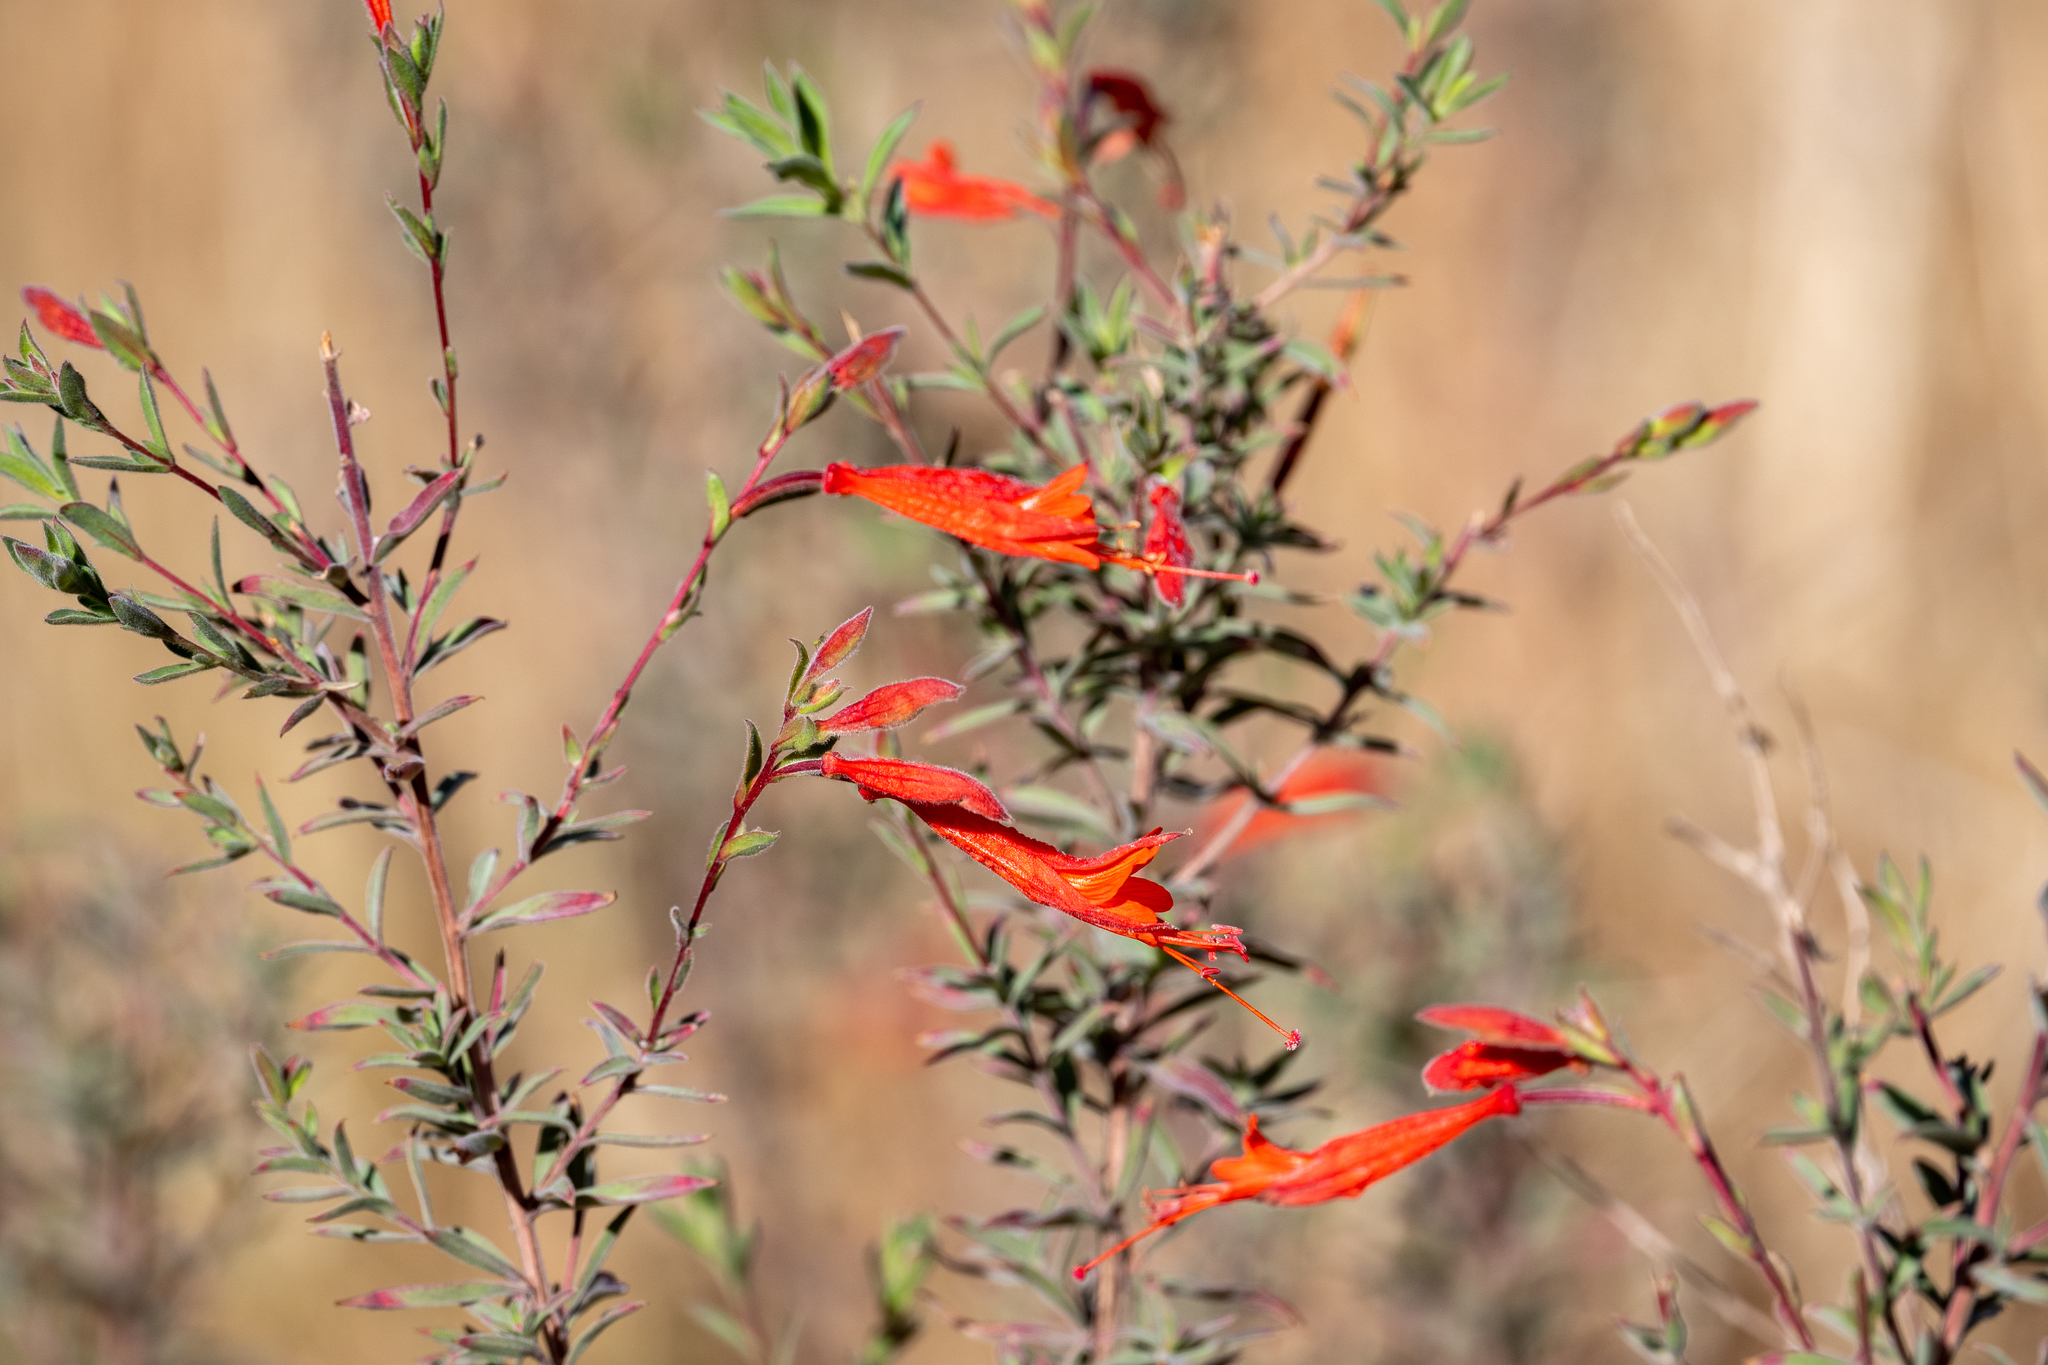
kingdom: Plantae
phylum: Tracheophyta
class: Magnoliopsida
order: Myrtales
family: Onagraceae
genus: Epilobium
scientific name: Epilobium canum
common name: California-fuchsia
